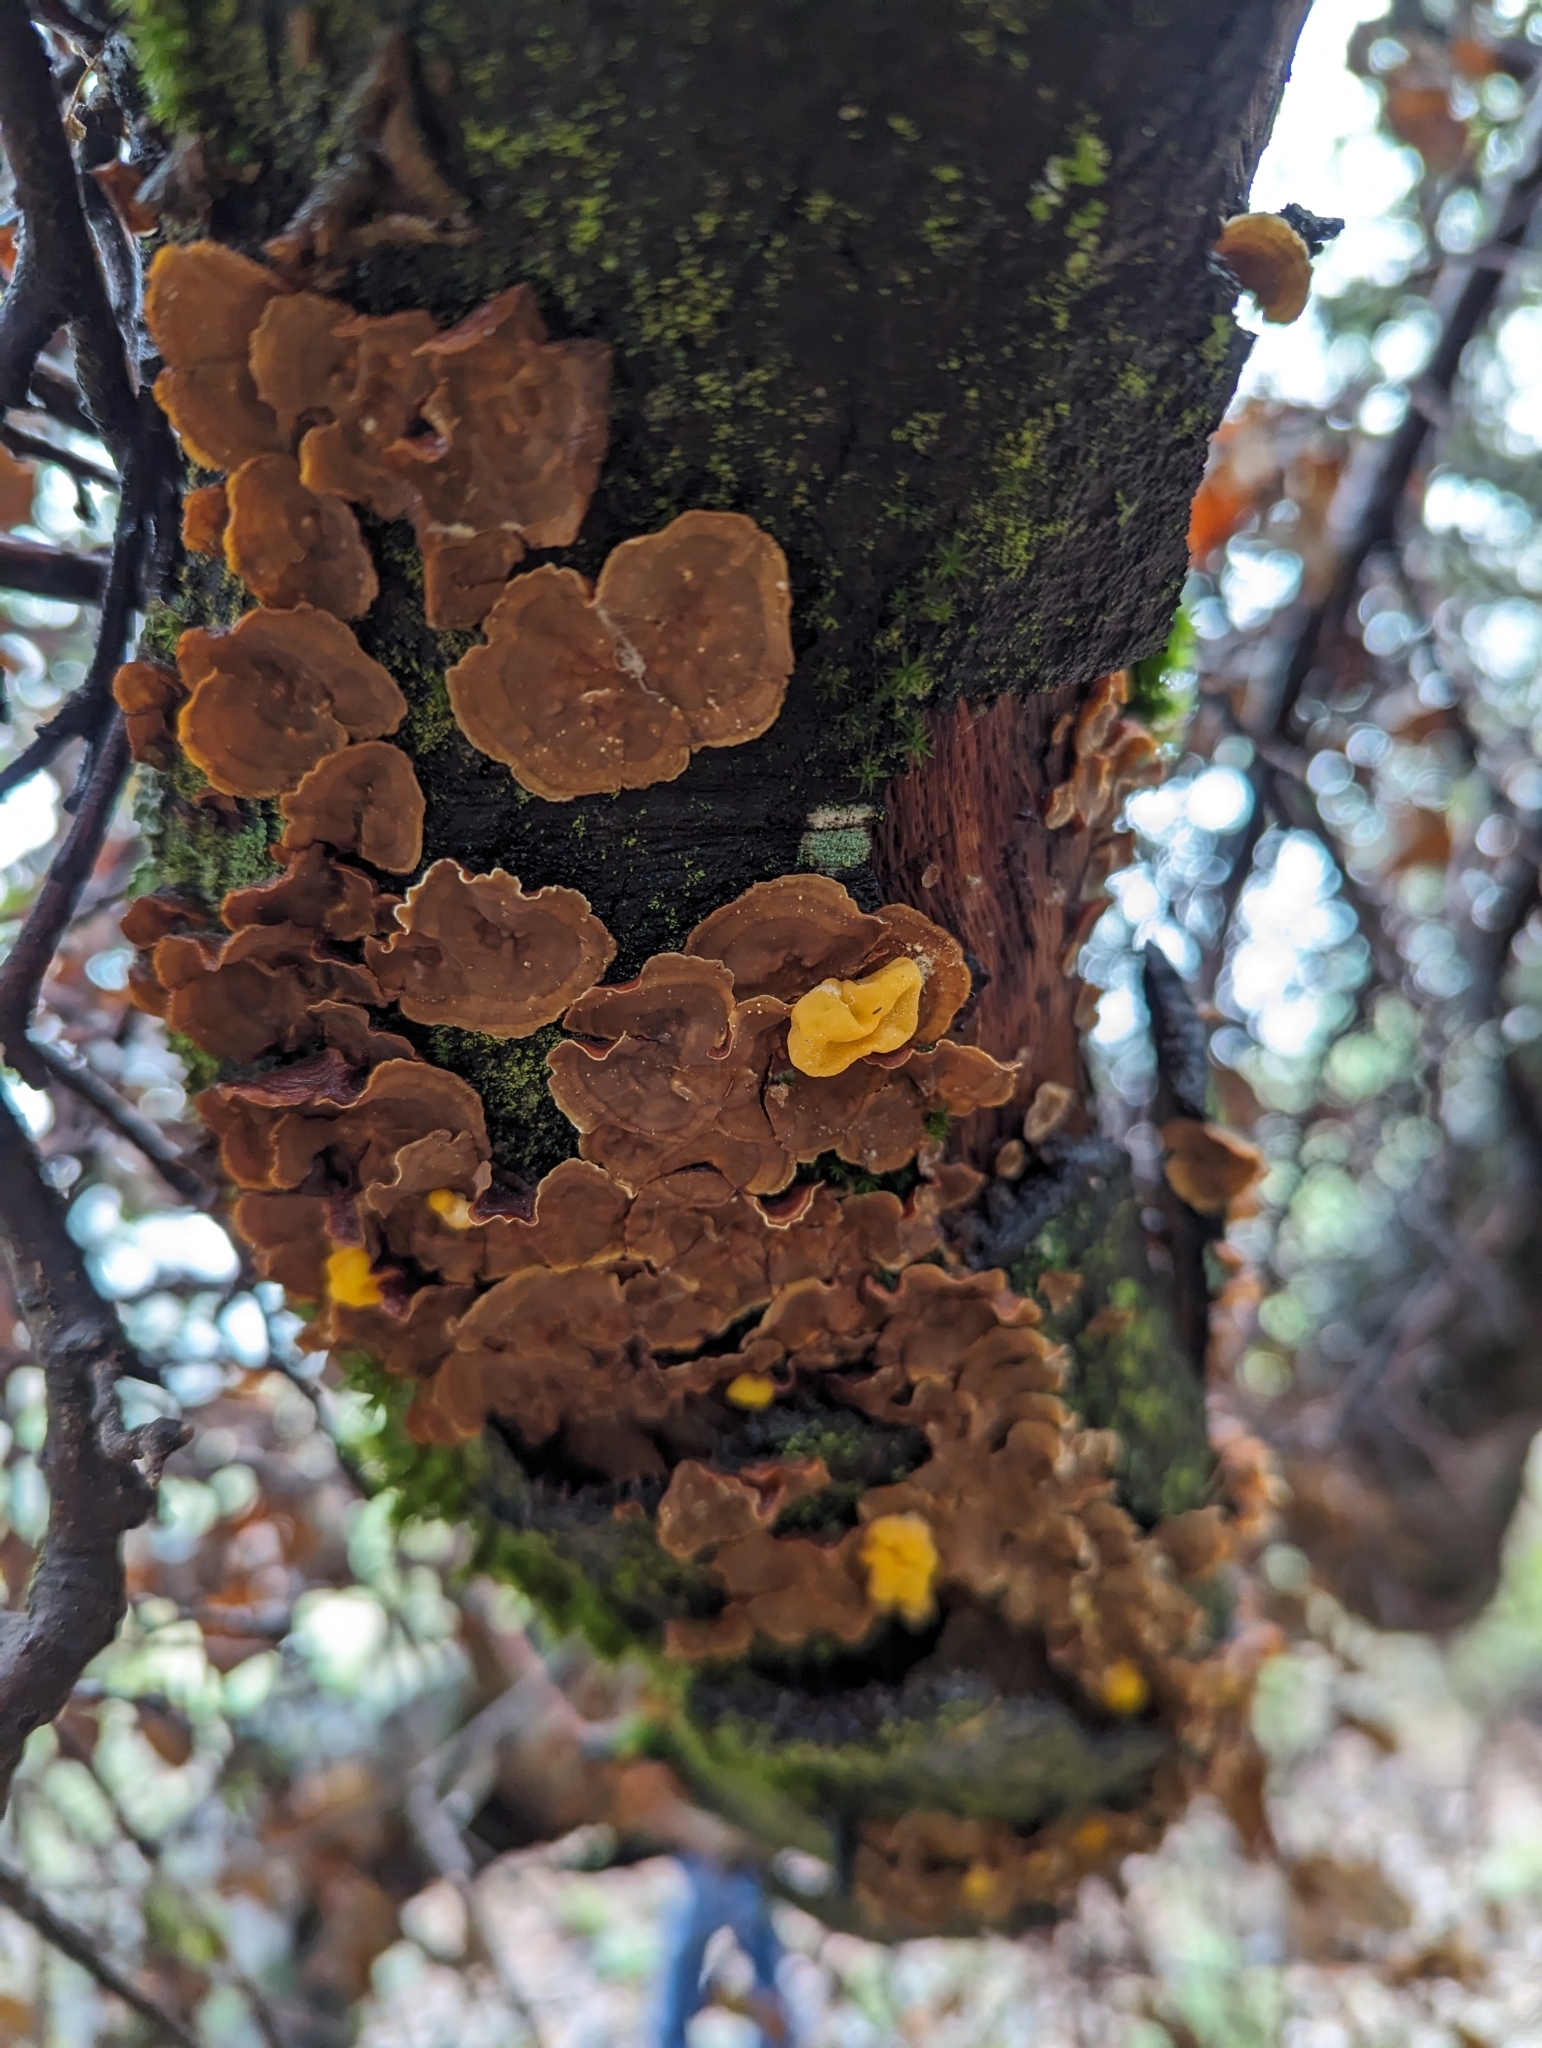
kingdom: Fungi
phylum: Basidiomycota
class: Agaricomycetes
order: Russulales
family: Stereaceae
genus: Stereum
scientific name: Stereum hirsutum
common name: Hairy curtain crust
